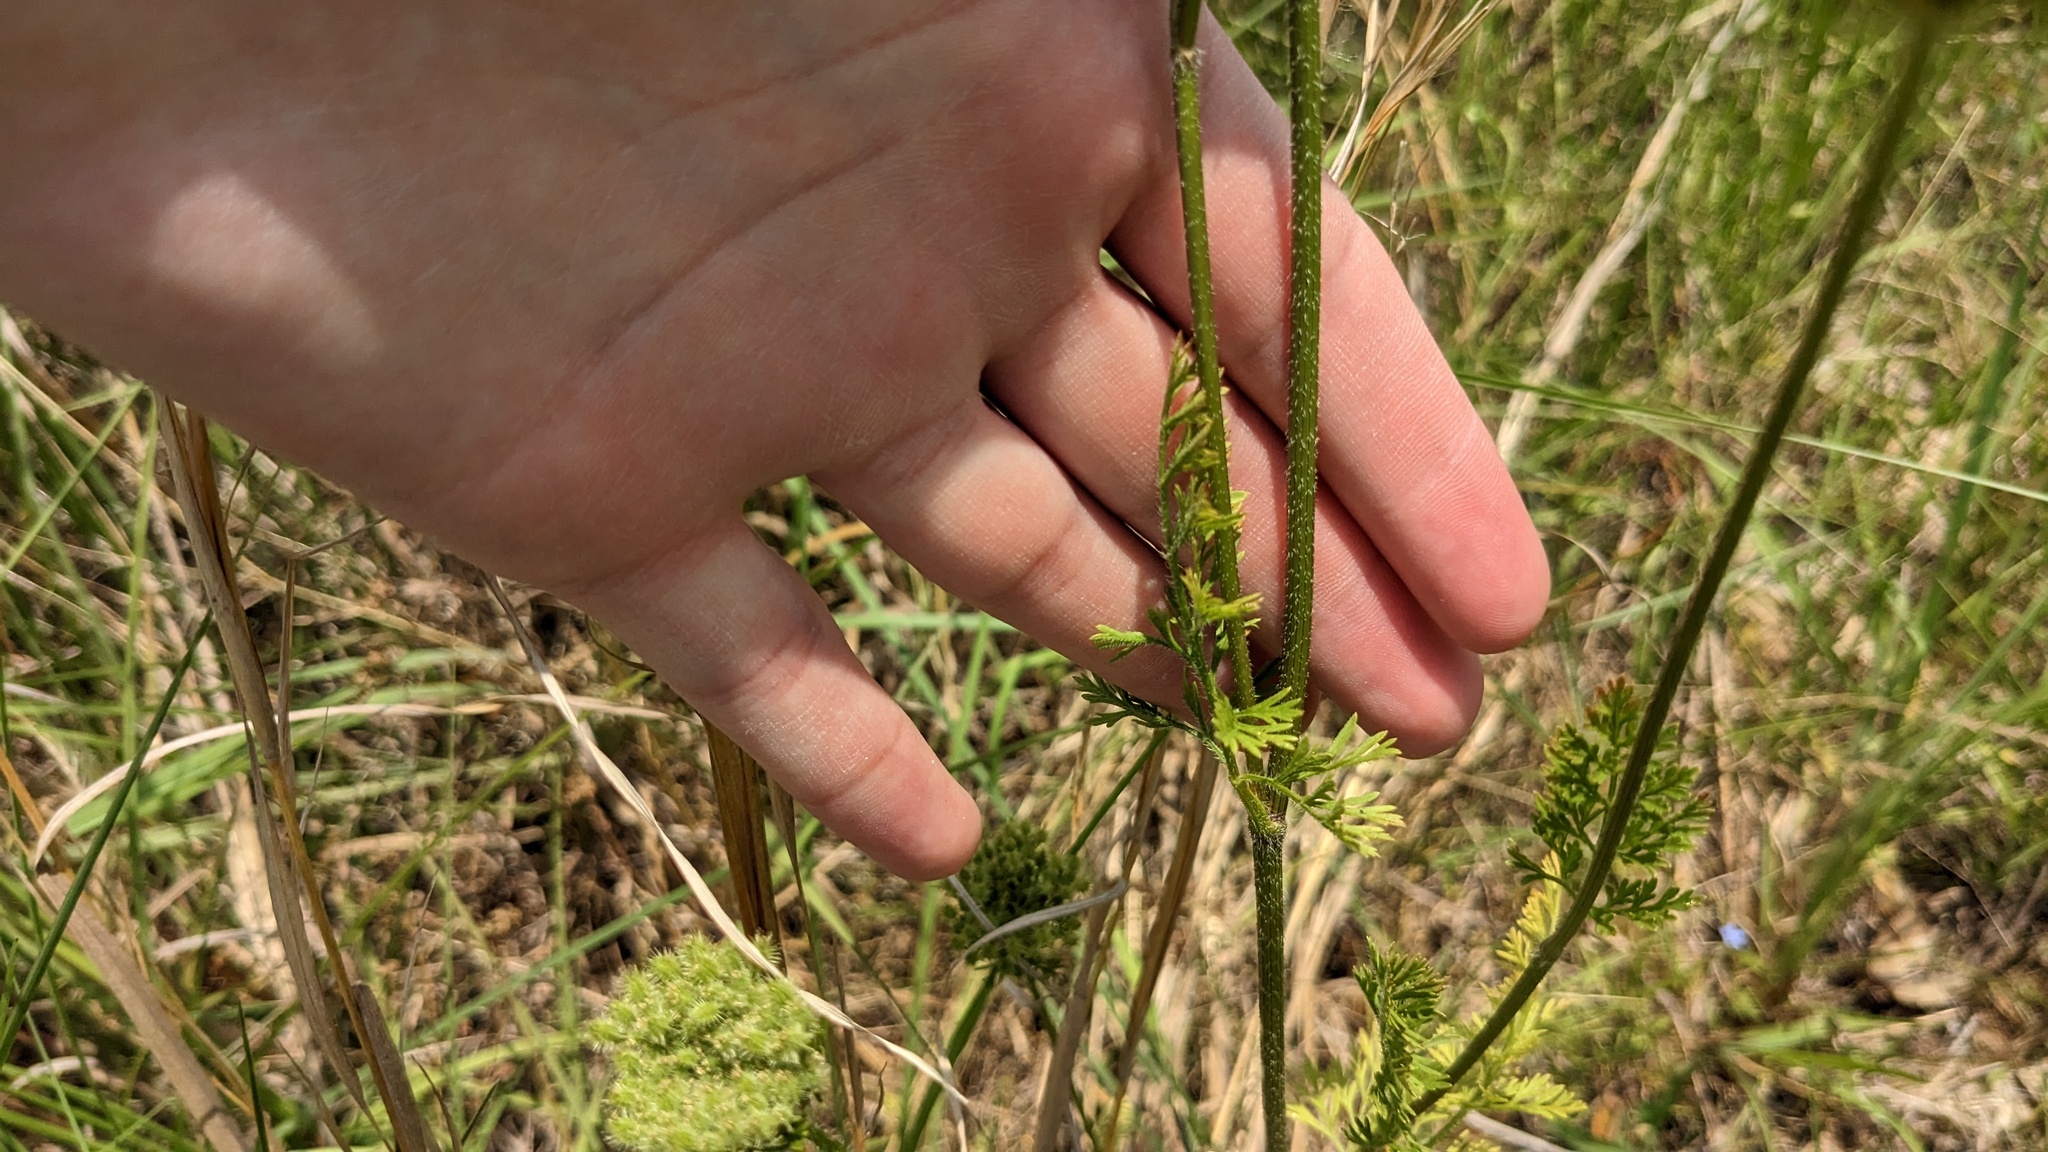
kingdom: Plantae
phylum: Tracheophyta
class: Magnoliopsida
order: Apiales
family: Apiaceae
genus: Daucus
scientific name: Daucus pusillus
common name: Southwest wild carrot
